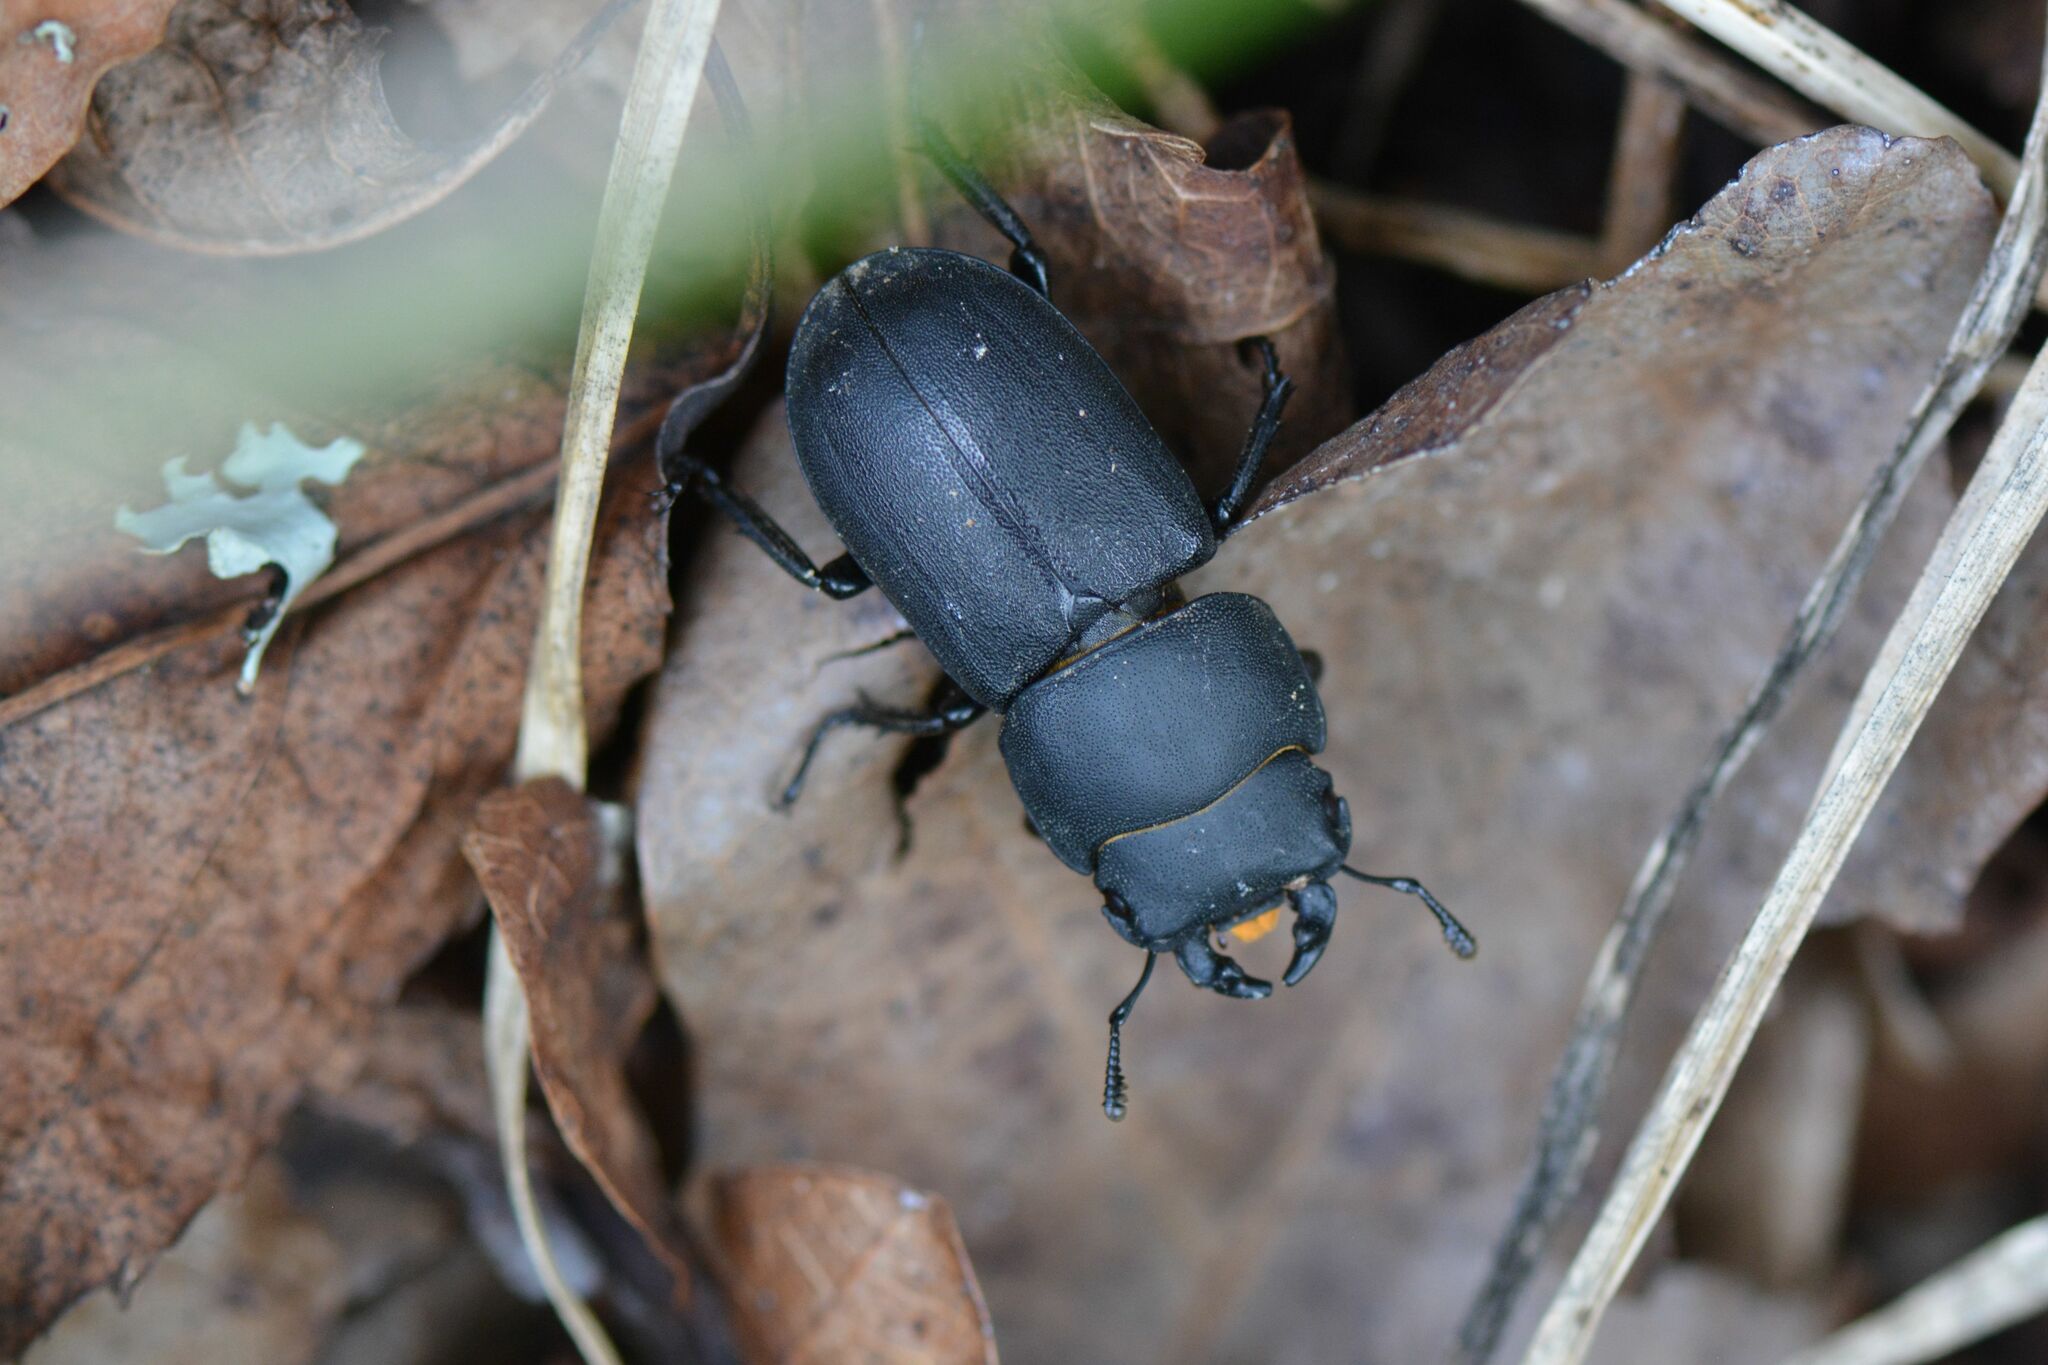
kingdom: Animalia
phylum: Arthropoda
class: Insecta
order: Coleoptera
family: Lucanidae
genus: Dorcus
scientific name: Dorcus parallelipipedus
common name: Lesser stag beetle
